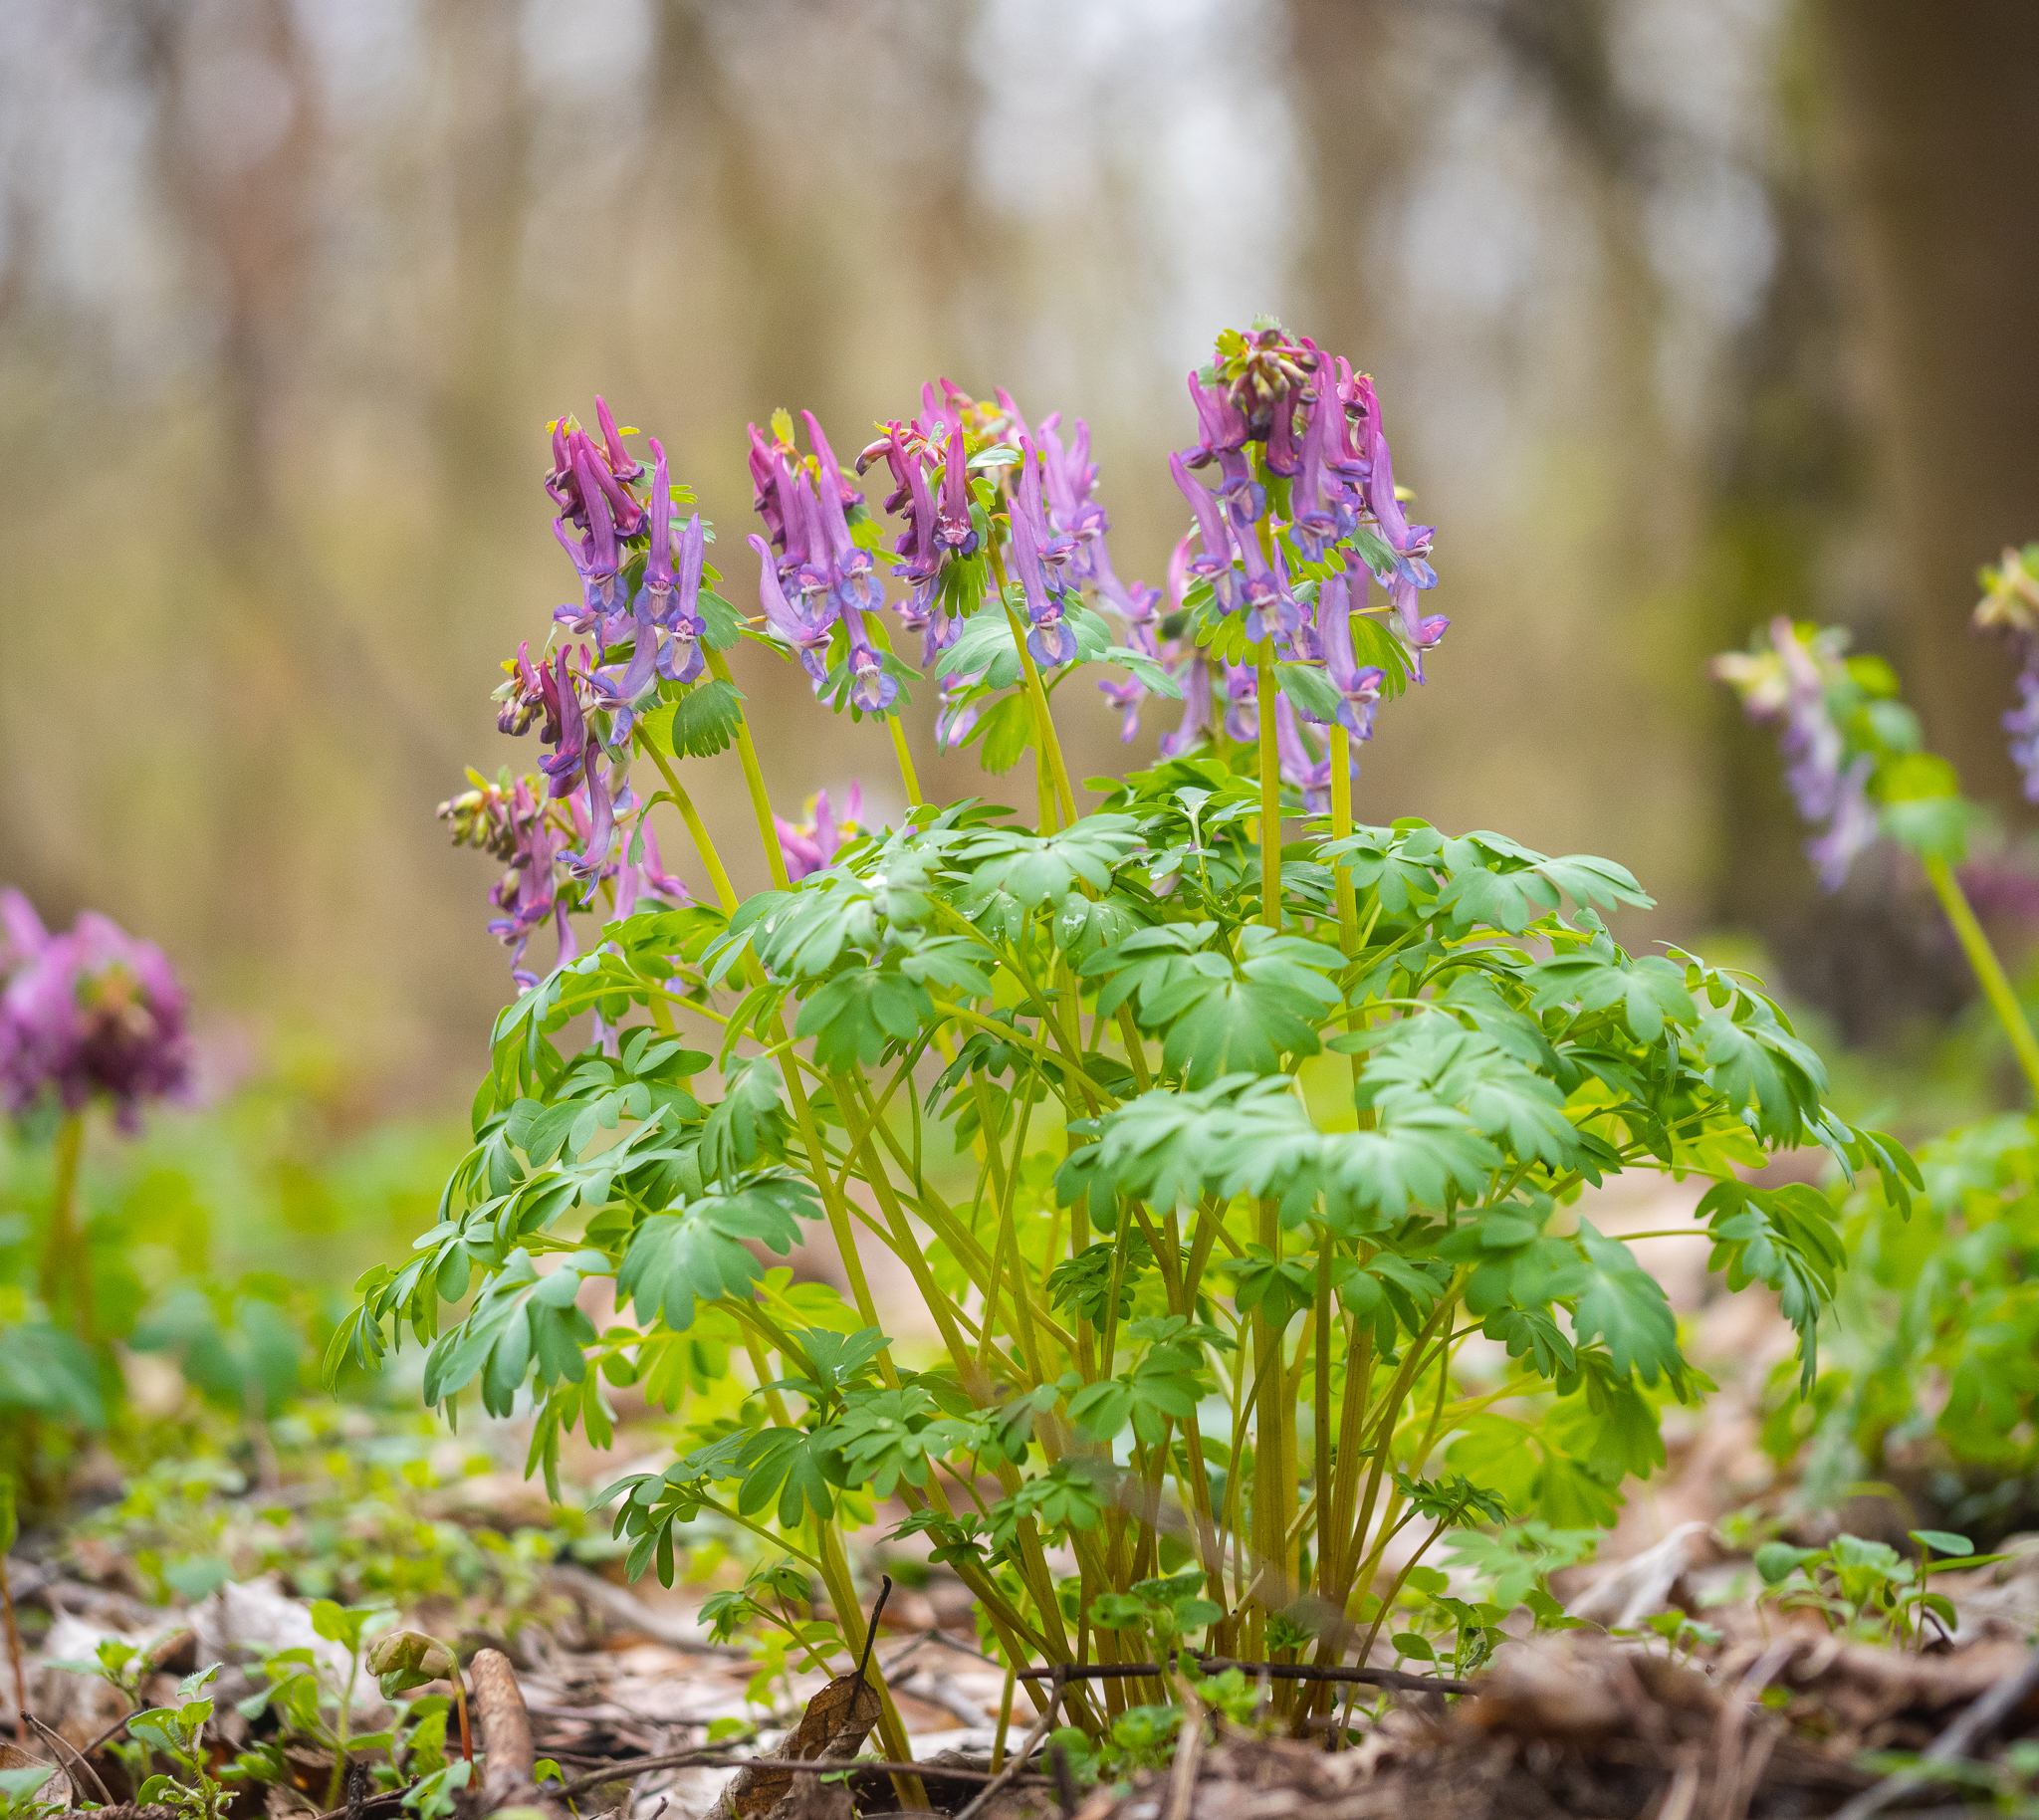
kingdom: Plantae
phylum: Tracheophyta
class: Magnoliopsida
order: Ranunculales
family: Papaveraceae
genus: Corydalis
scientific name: Corydalis solida
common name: Bird-in-a-bush
